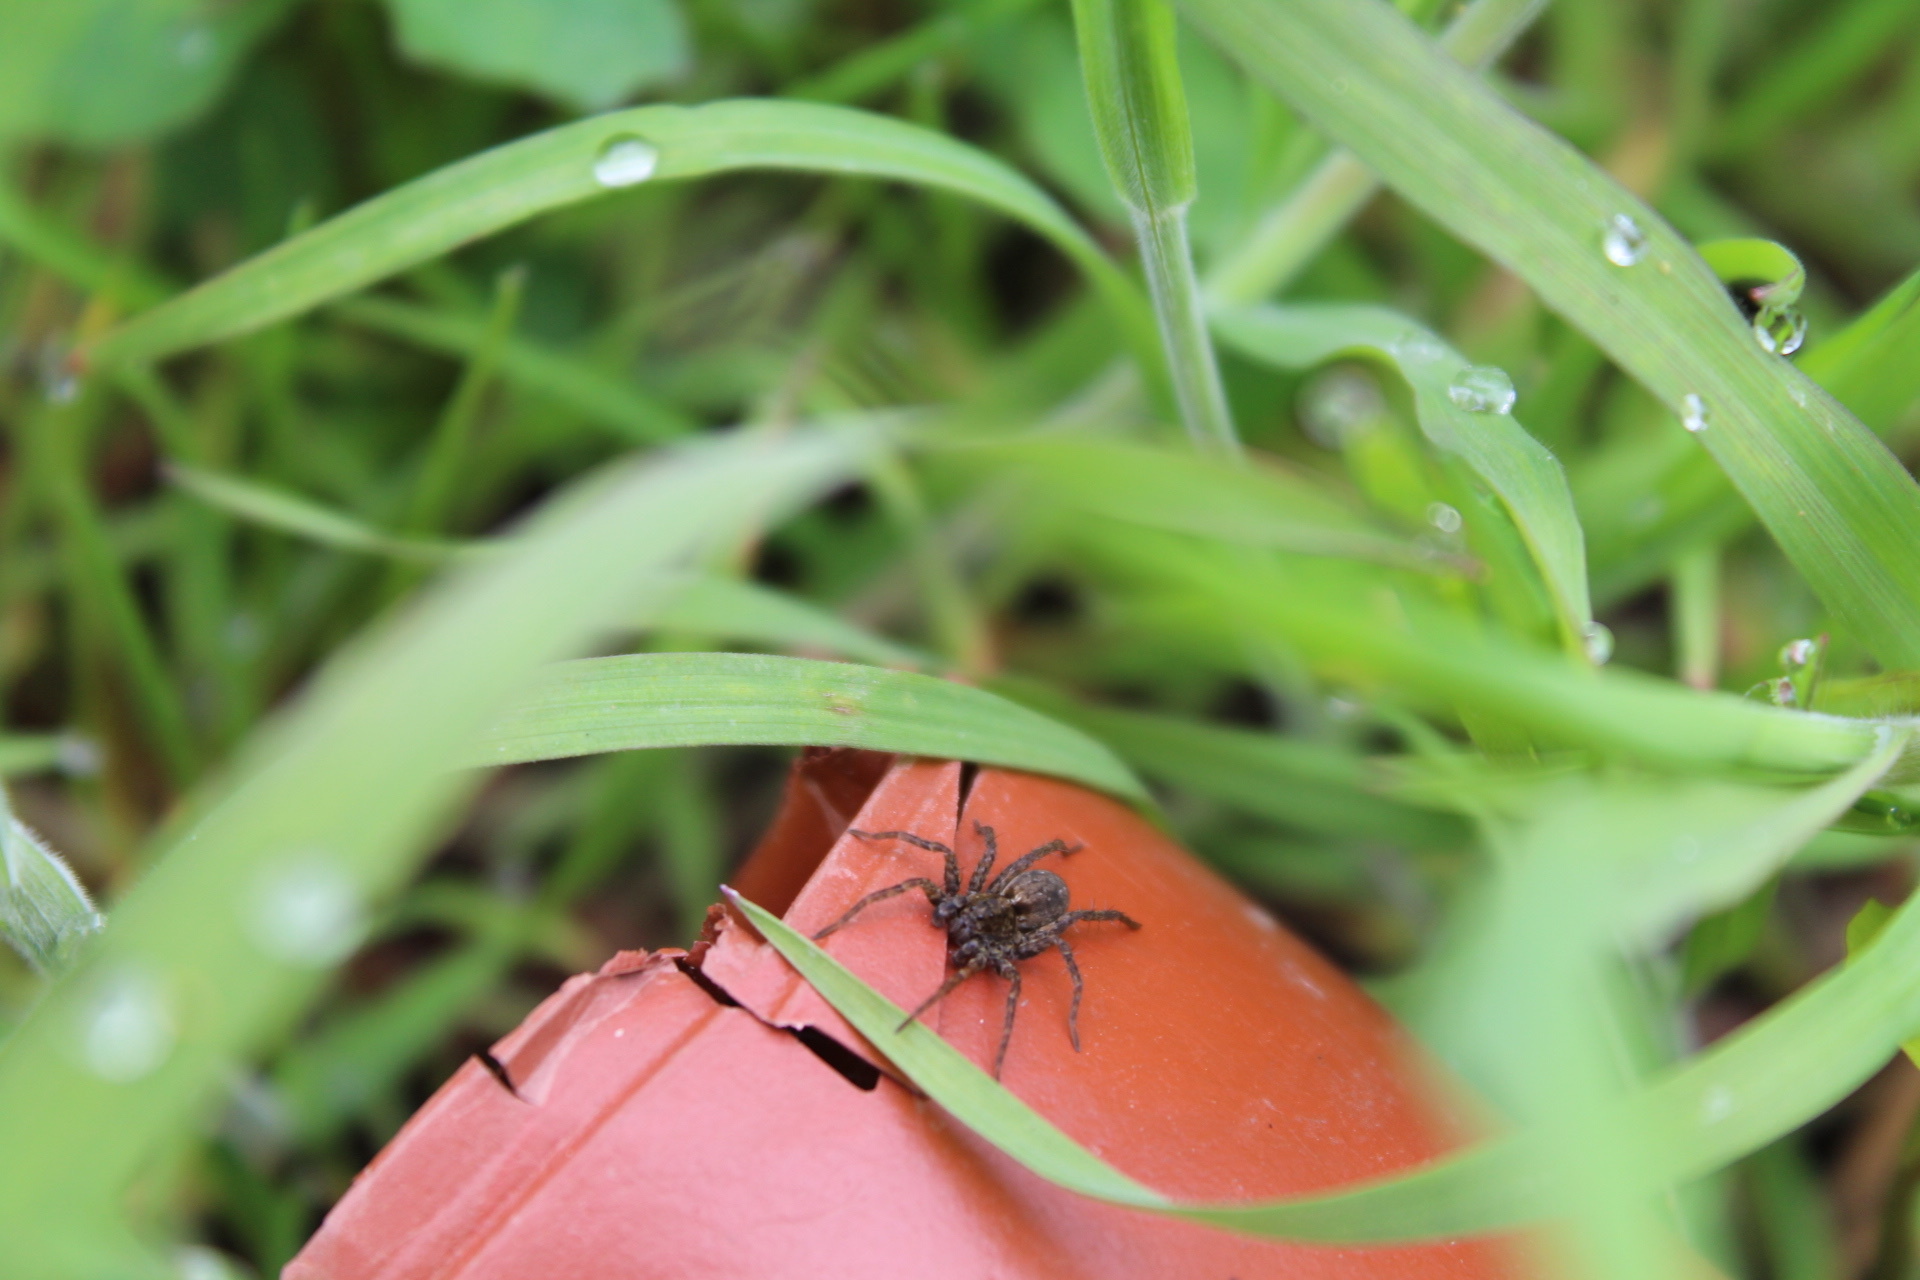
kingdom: Animalia
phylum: Arthropoda
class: Arachnida
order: Araneae
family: Lycosidae
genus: Pardosa
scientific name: Pardosa amentata
